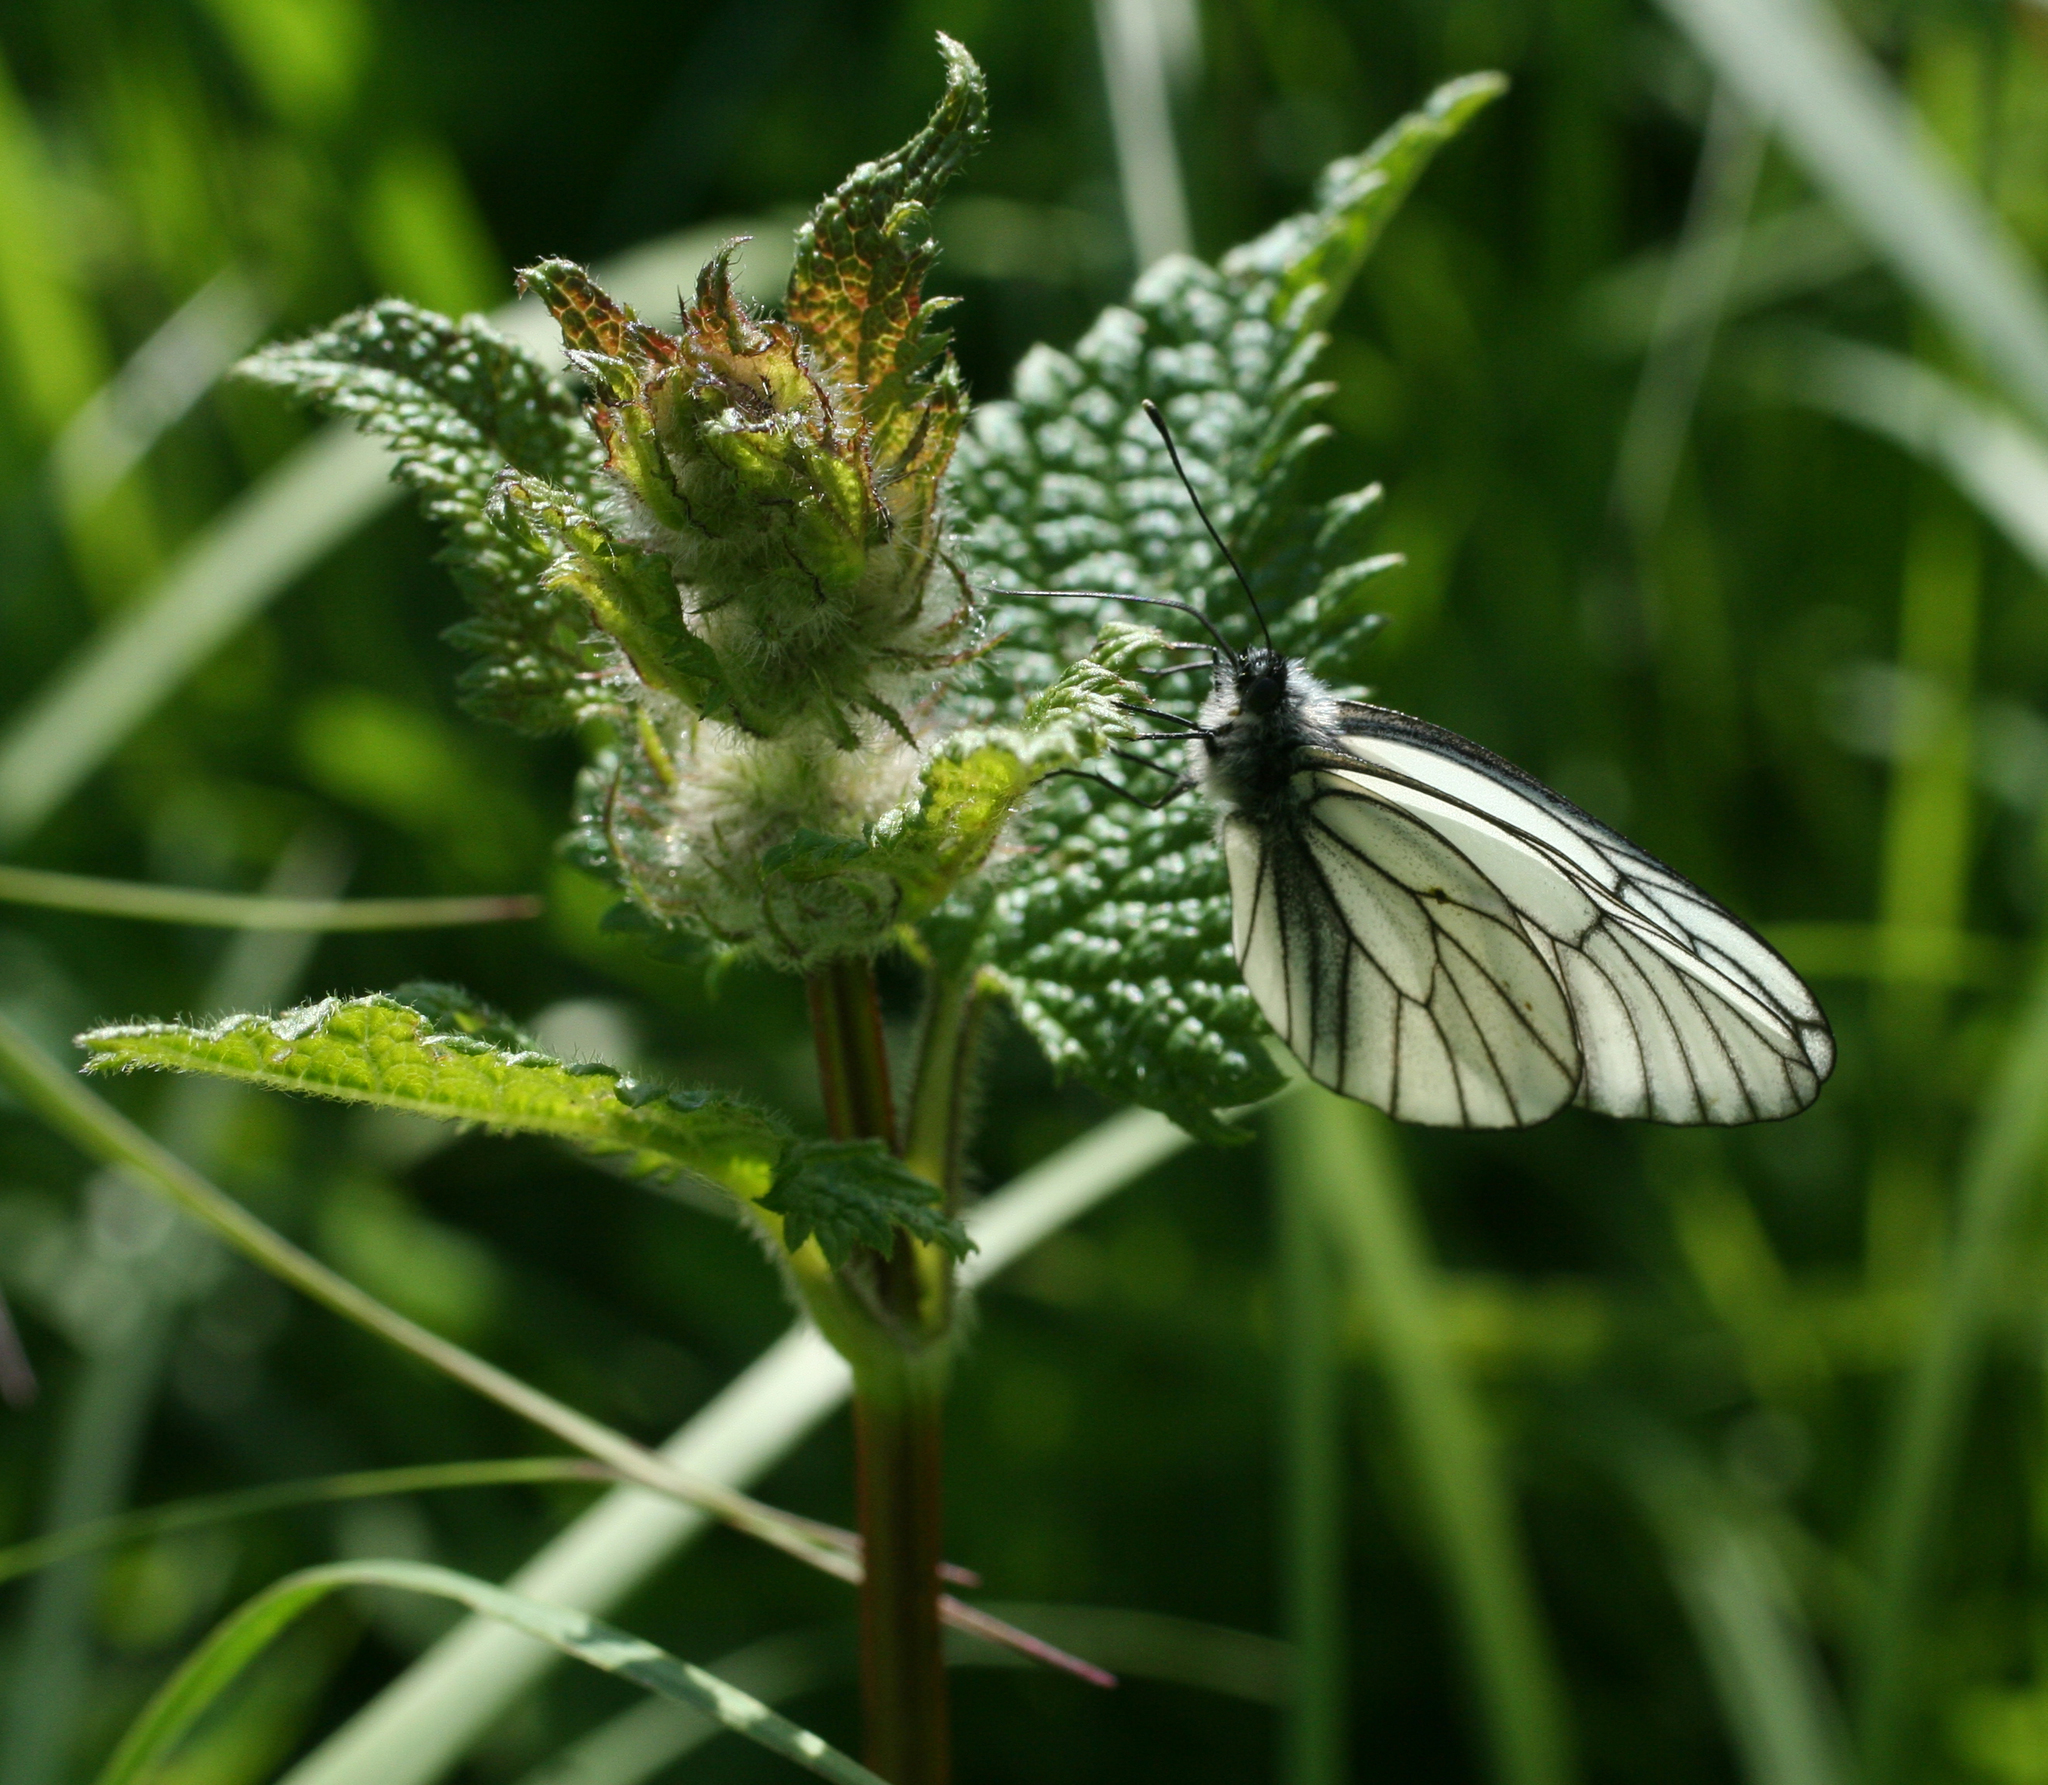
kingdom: Animalia
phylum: Arthropoda
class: Insecta
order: Lepidoptera
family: Pieridae
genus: Aporia
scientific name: Aporia crataegi
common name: Black-veined white
